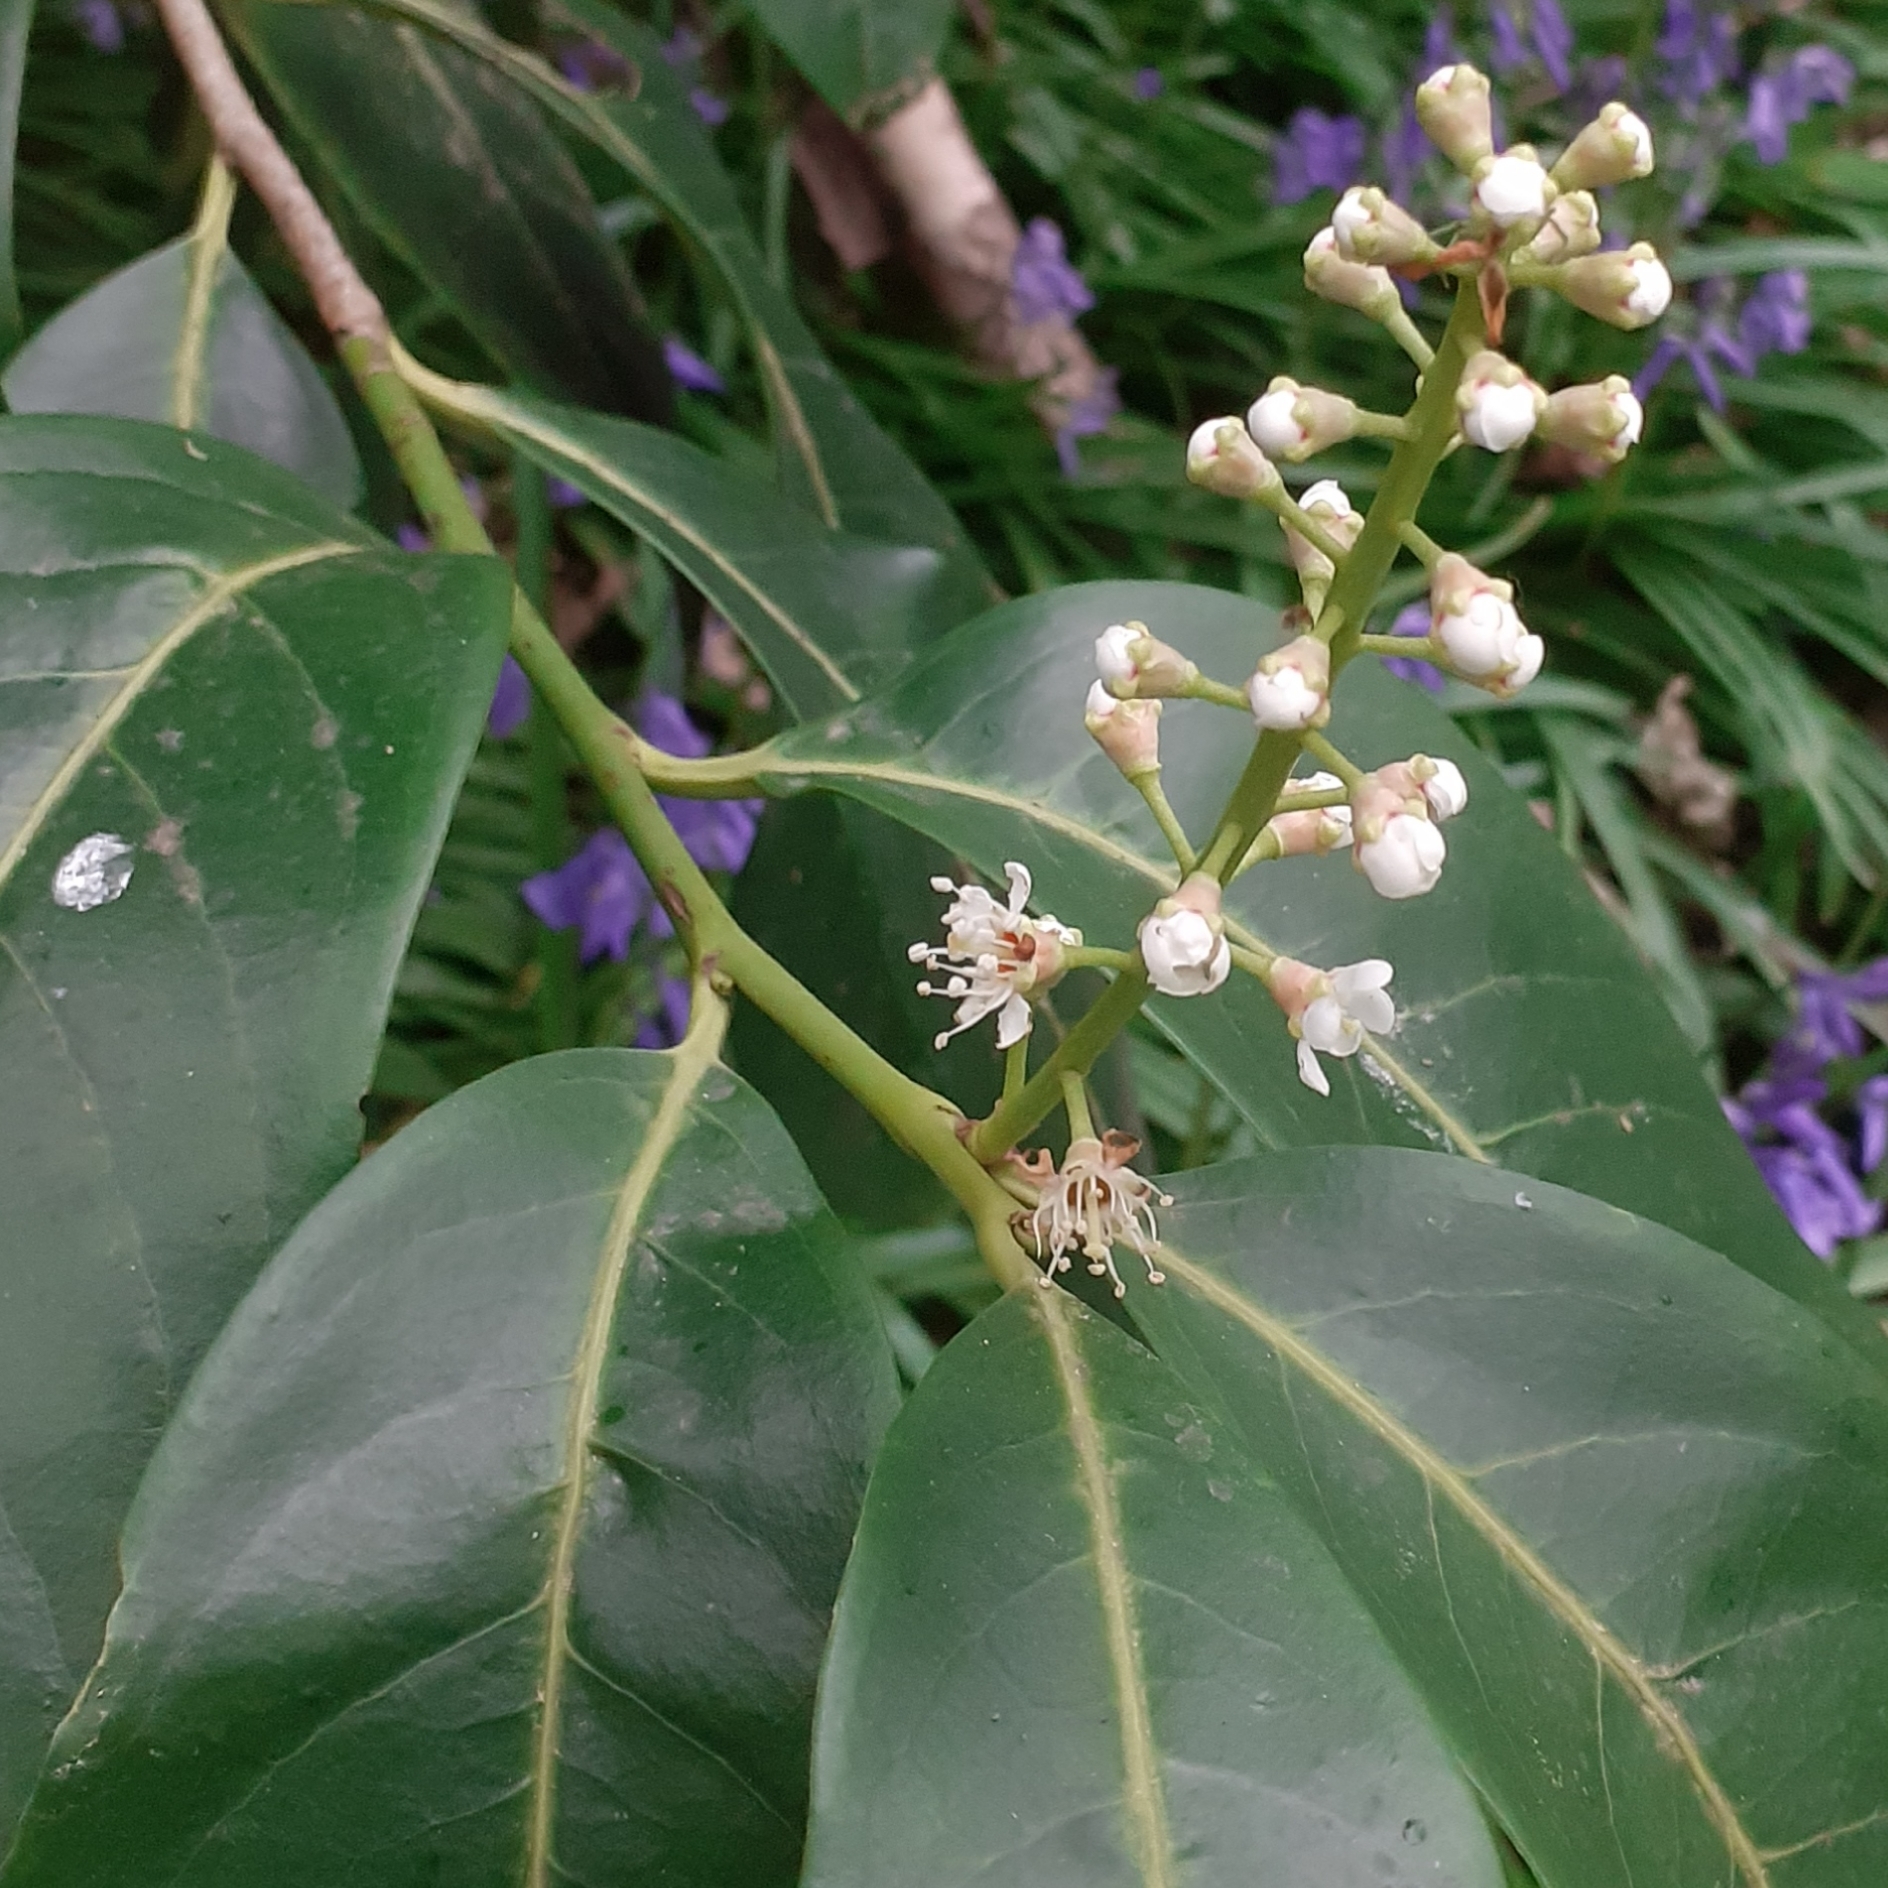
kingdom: Plantae
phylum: Tracheophyta
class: Magnoliopsida
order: Rosales
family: Rosaceae
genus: Prunus
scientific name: Prunus laurocerasus
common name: Cherry laurel
